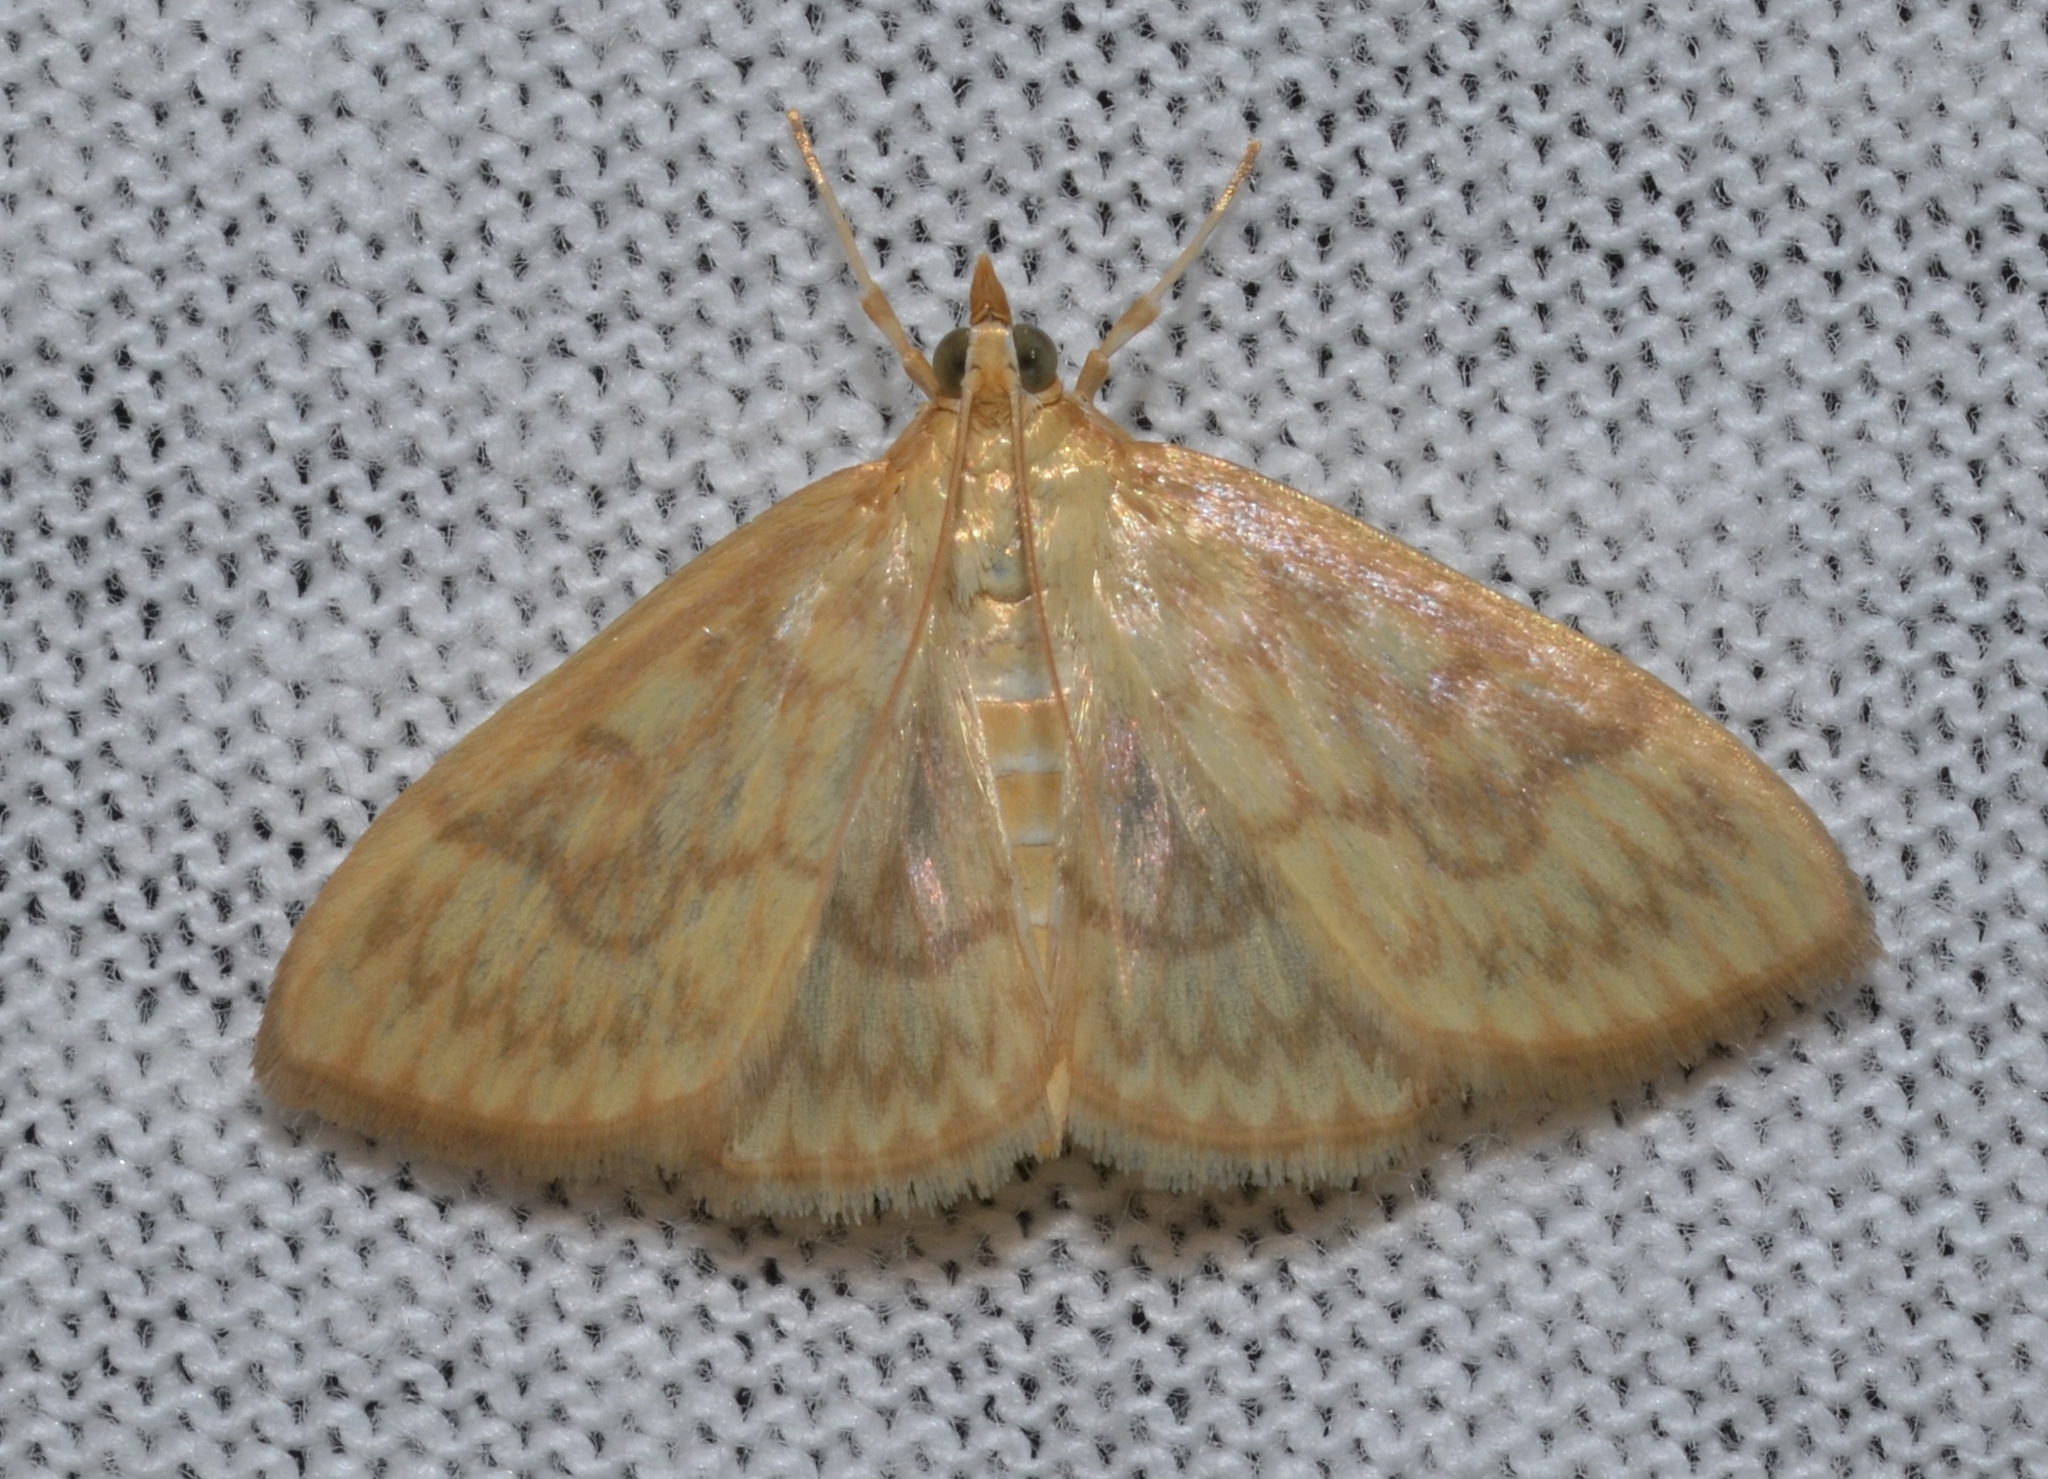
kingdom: Animalia
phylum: Arthropoda
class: Insecta
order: Lepidoptera
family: Crambidae
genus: Crocidophora
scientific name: Crocidophora serratissimalis
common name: Saw-toothed crocidophora moth
